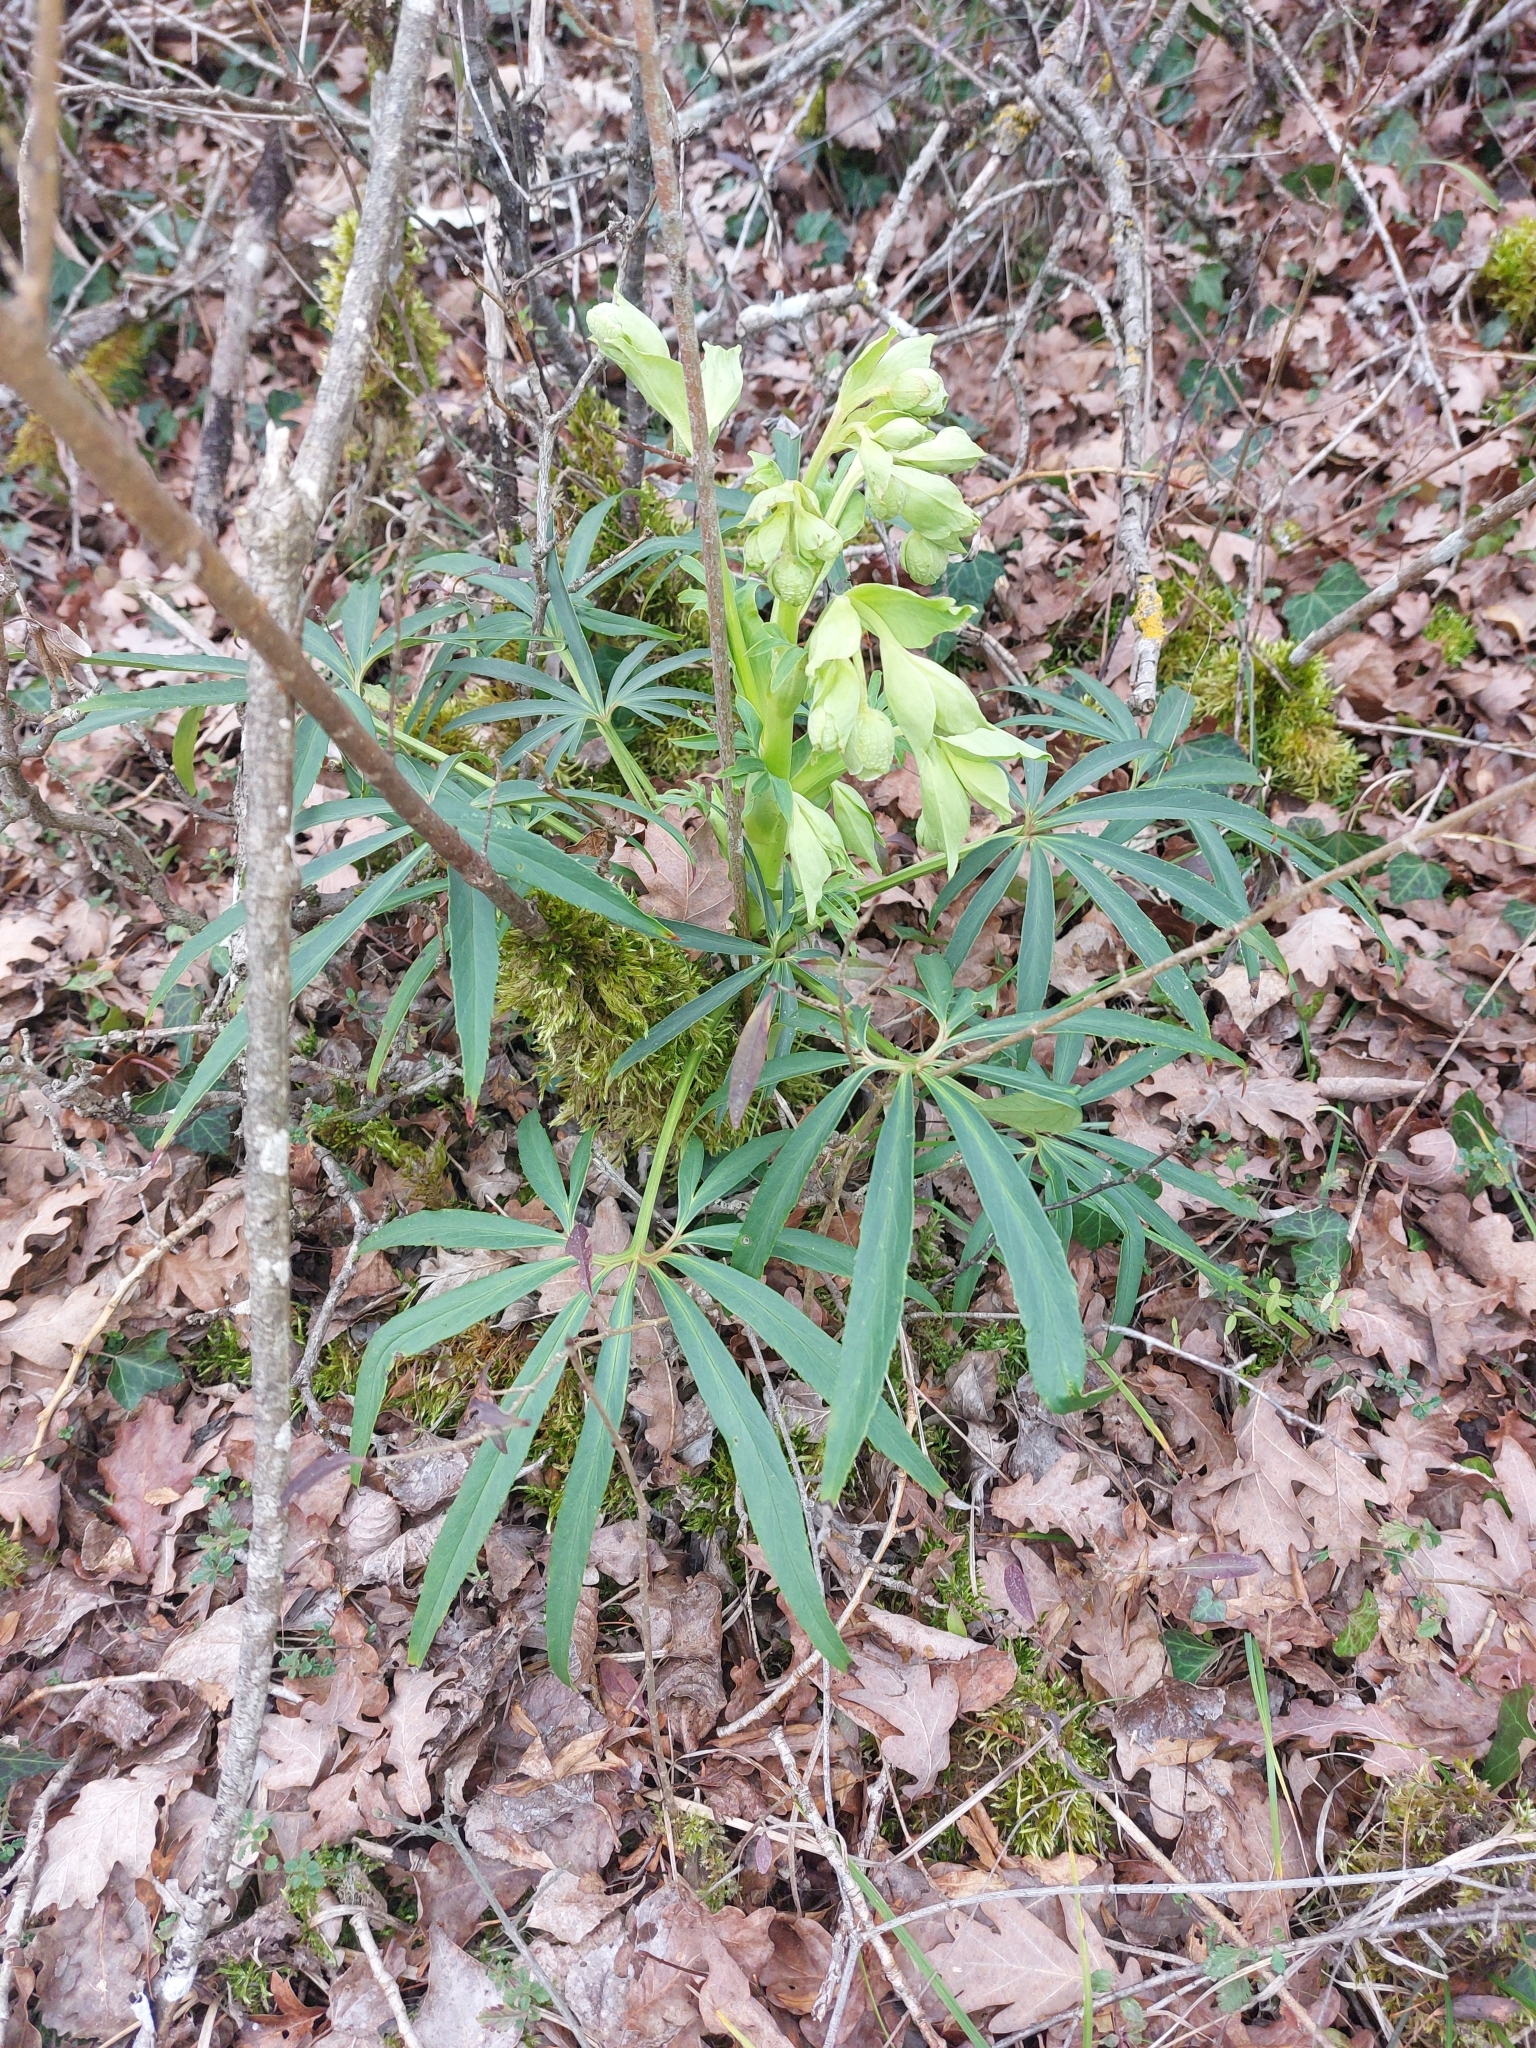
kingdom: Plantae
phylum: Tracheophyta
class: Magnoliopsida
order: Ranunculales
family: Ranunculaceae
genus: Helleborus
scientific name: Helleborus foetidus
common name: Stinking hellebore
